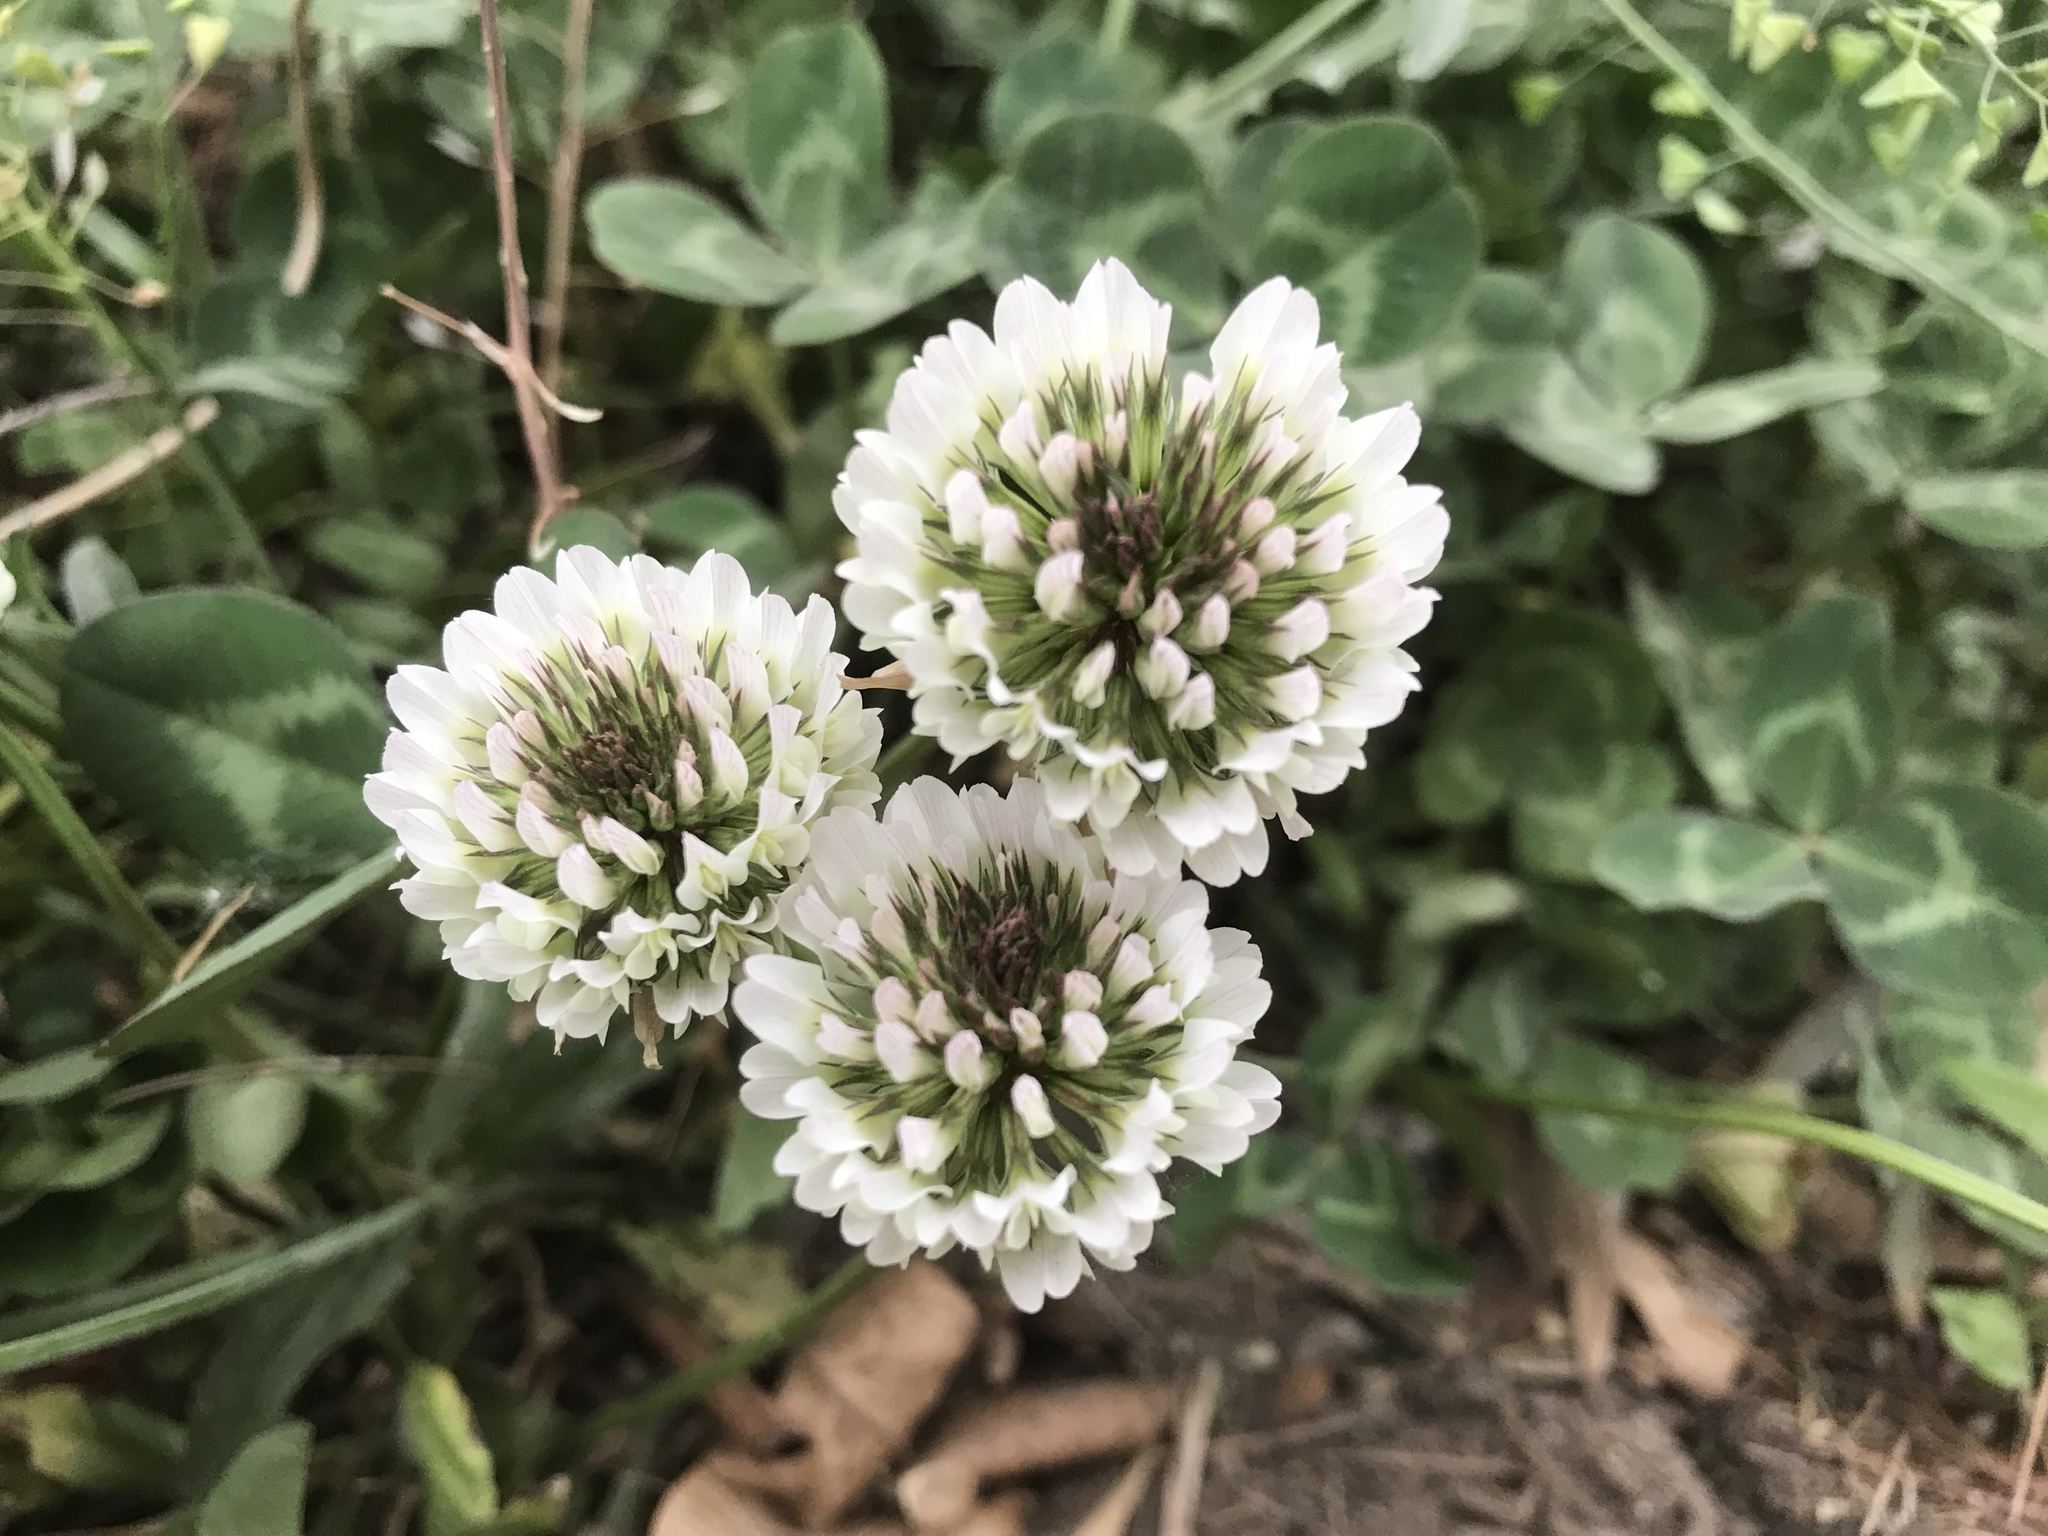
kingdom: Plantae
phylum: Tracheophyta
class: Magnoliopsida
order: Fabales
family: Fabaceae
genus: Trifolium
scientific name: Trifolium repens
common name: White clover
